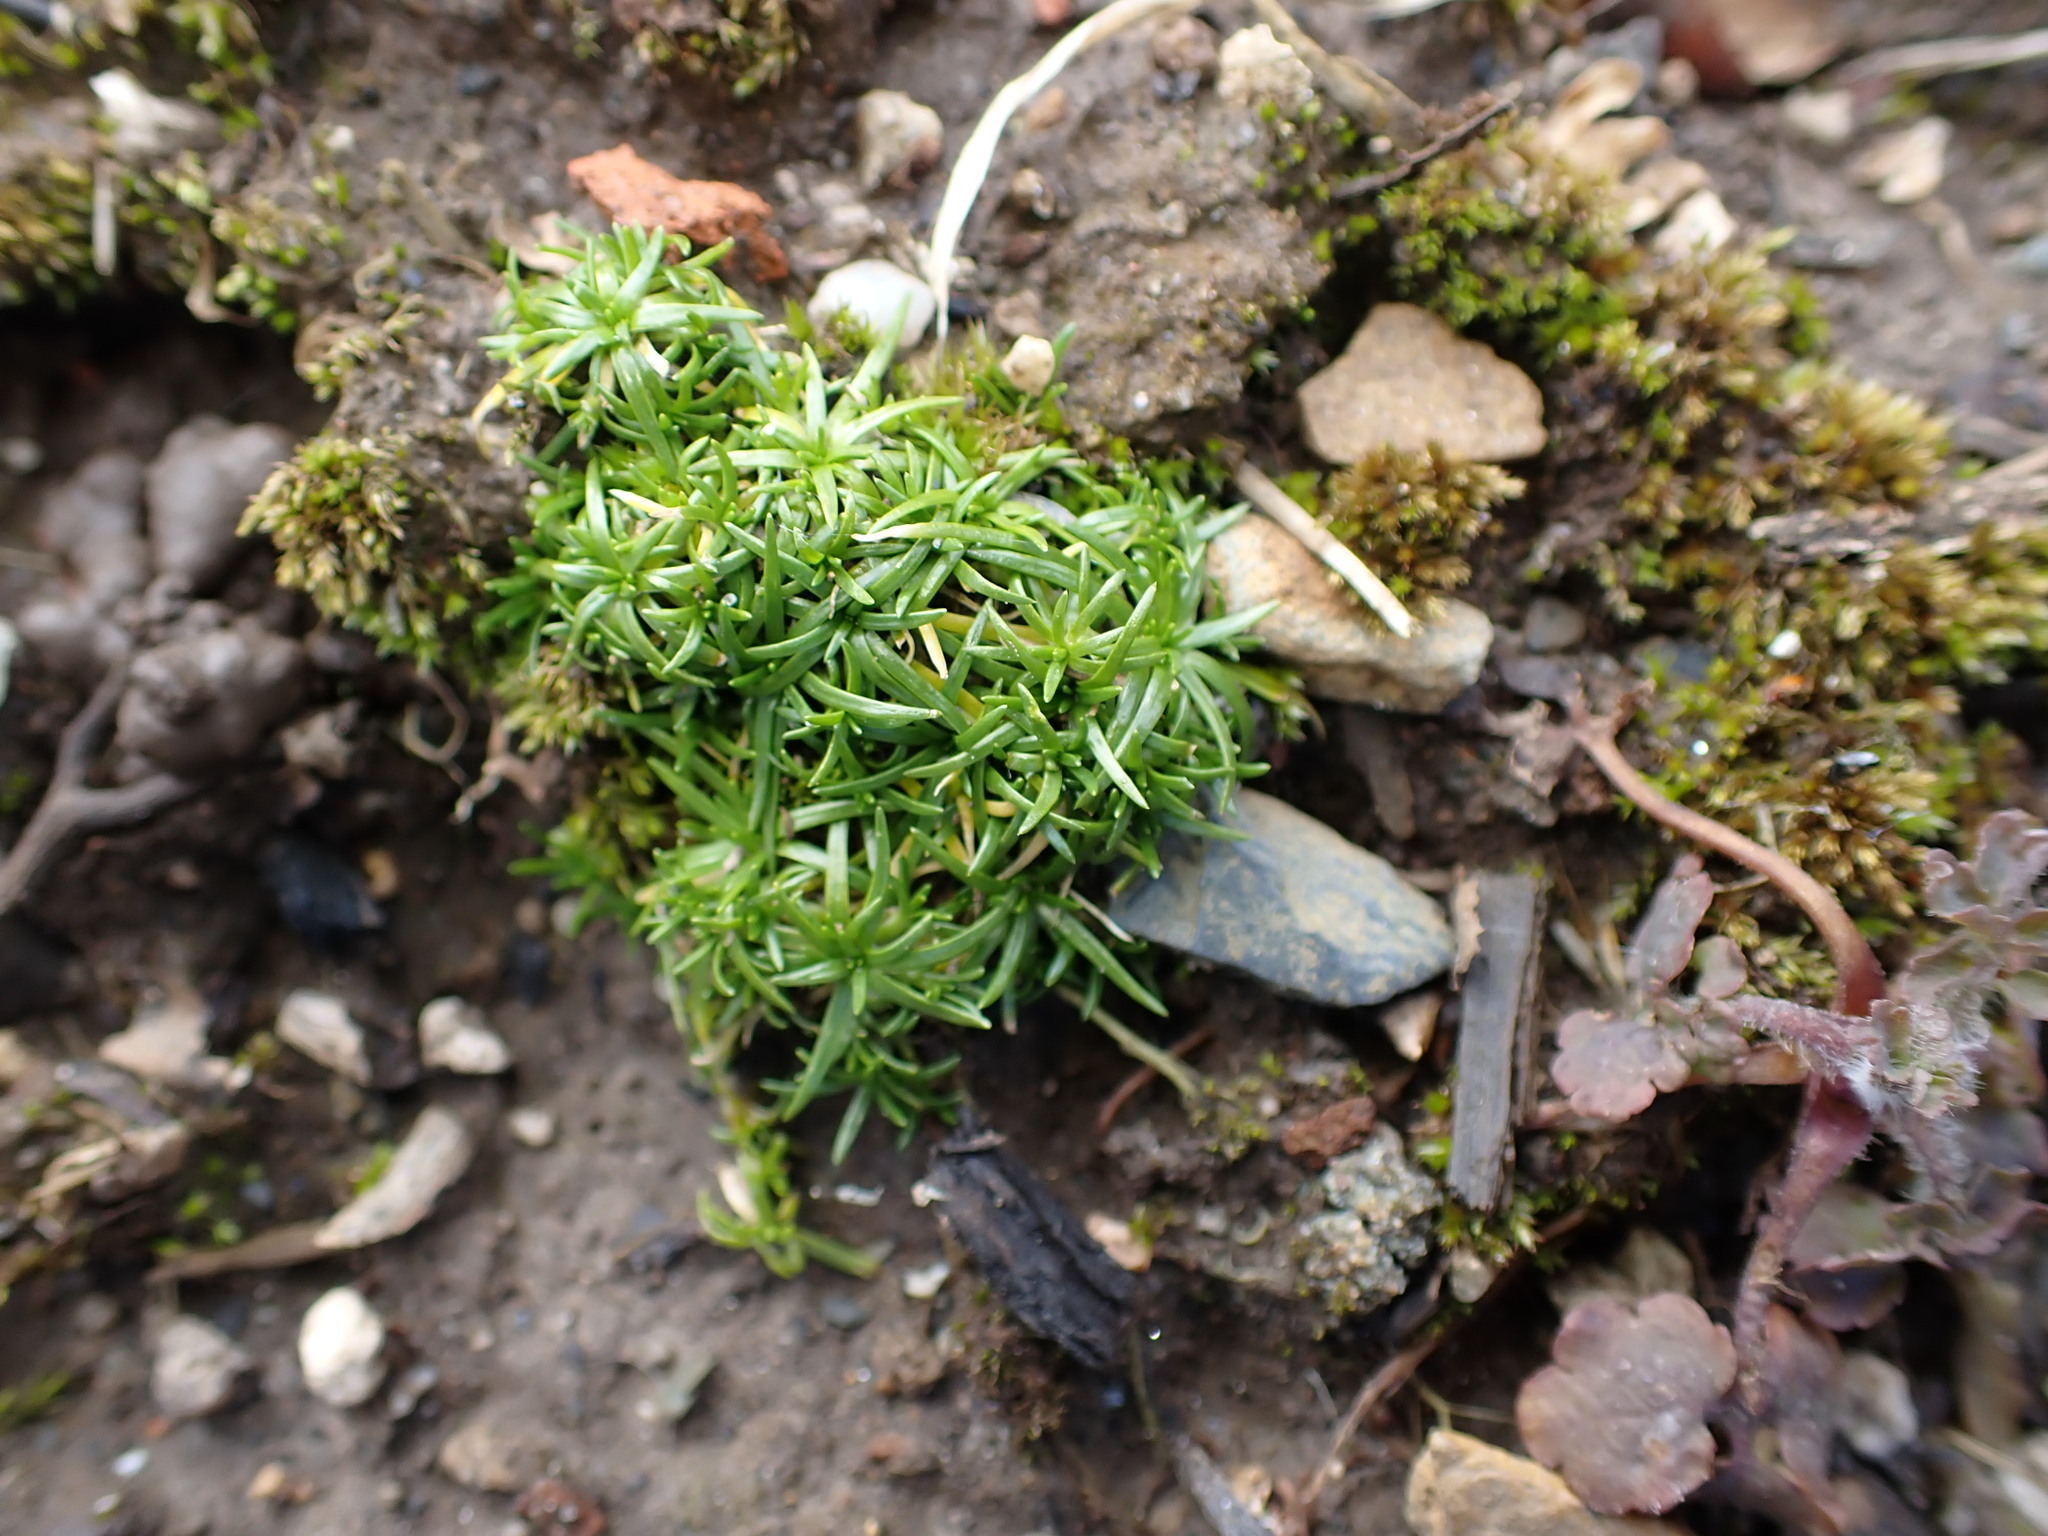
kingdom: Plantae
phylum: Tracheophyta
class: Magnoliopsida
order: Caryophyllales
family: Caryophyllaceae
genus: Sagina
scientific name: Sagina procumbens
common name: Procumbent pearlwort
